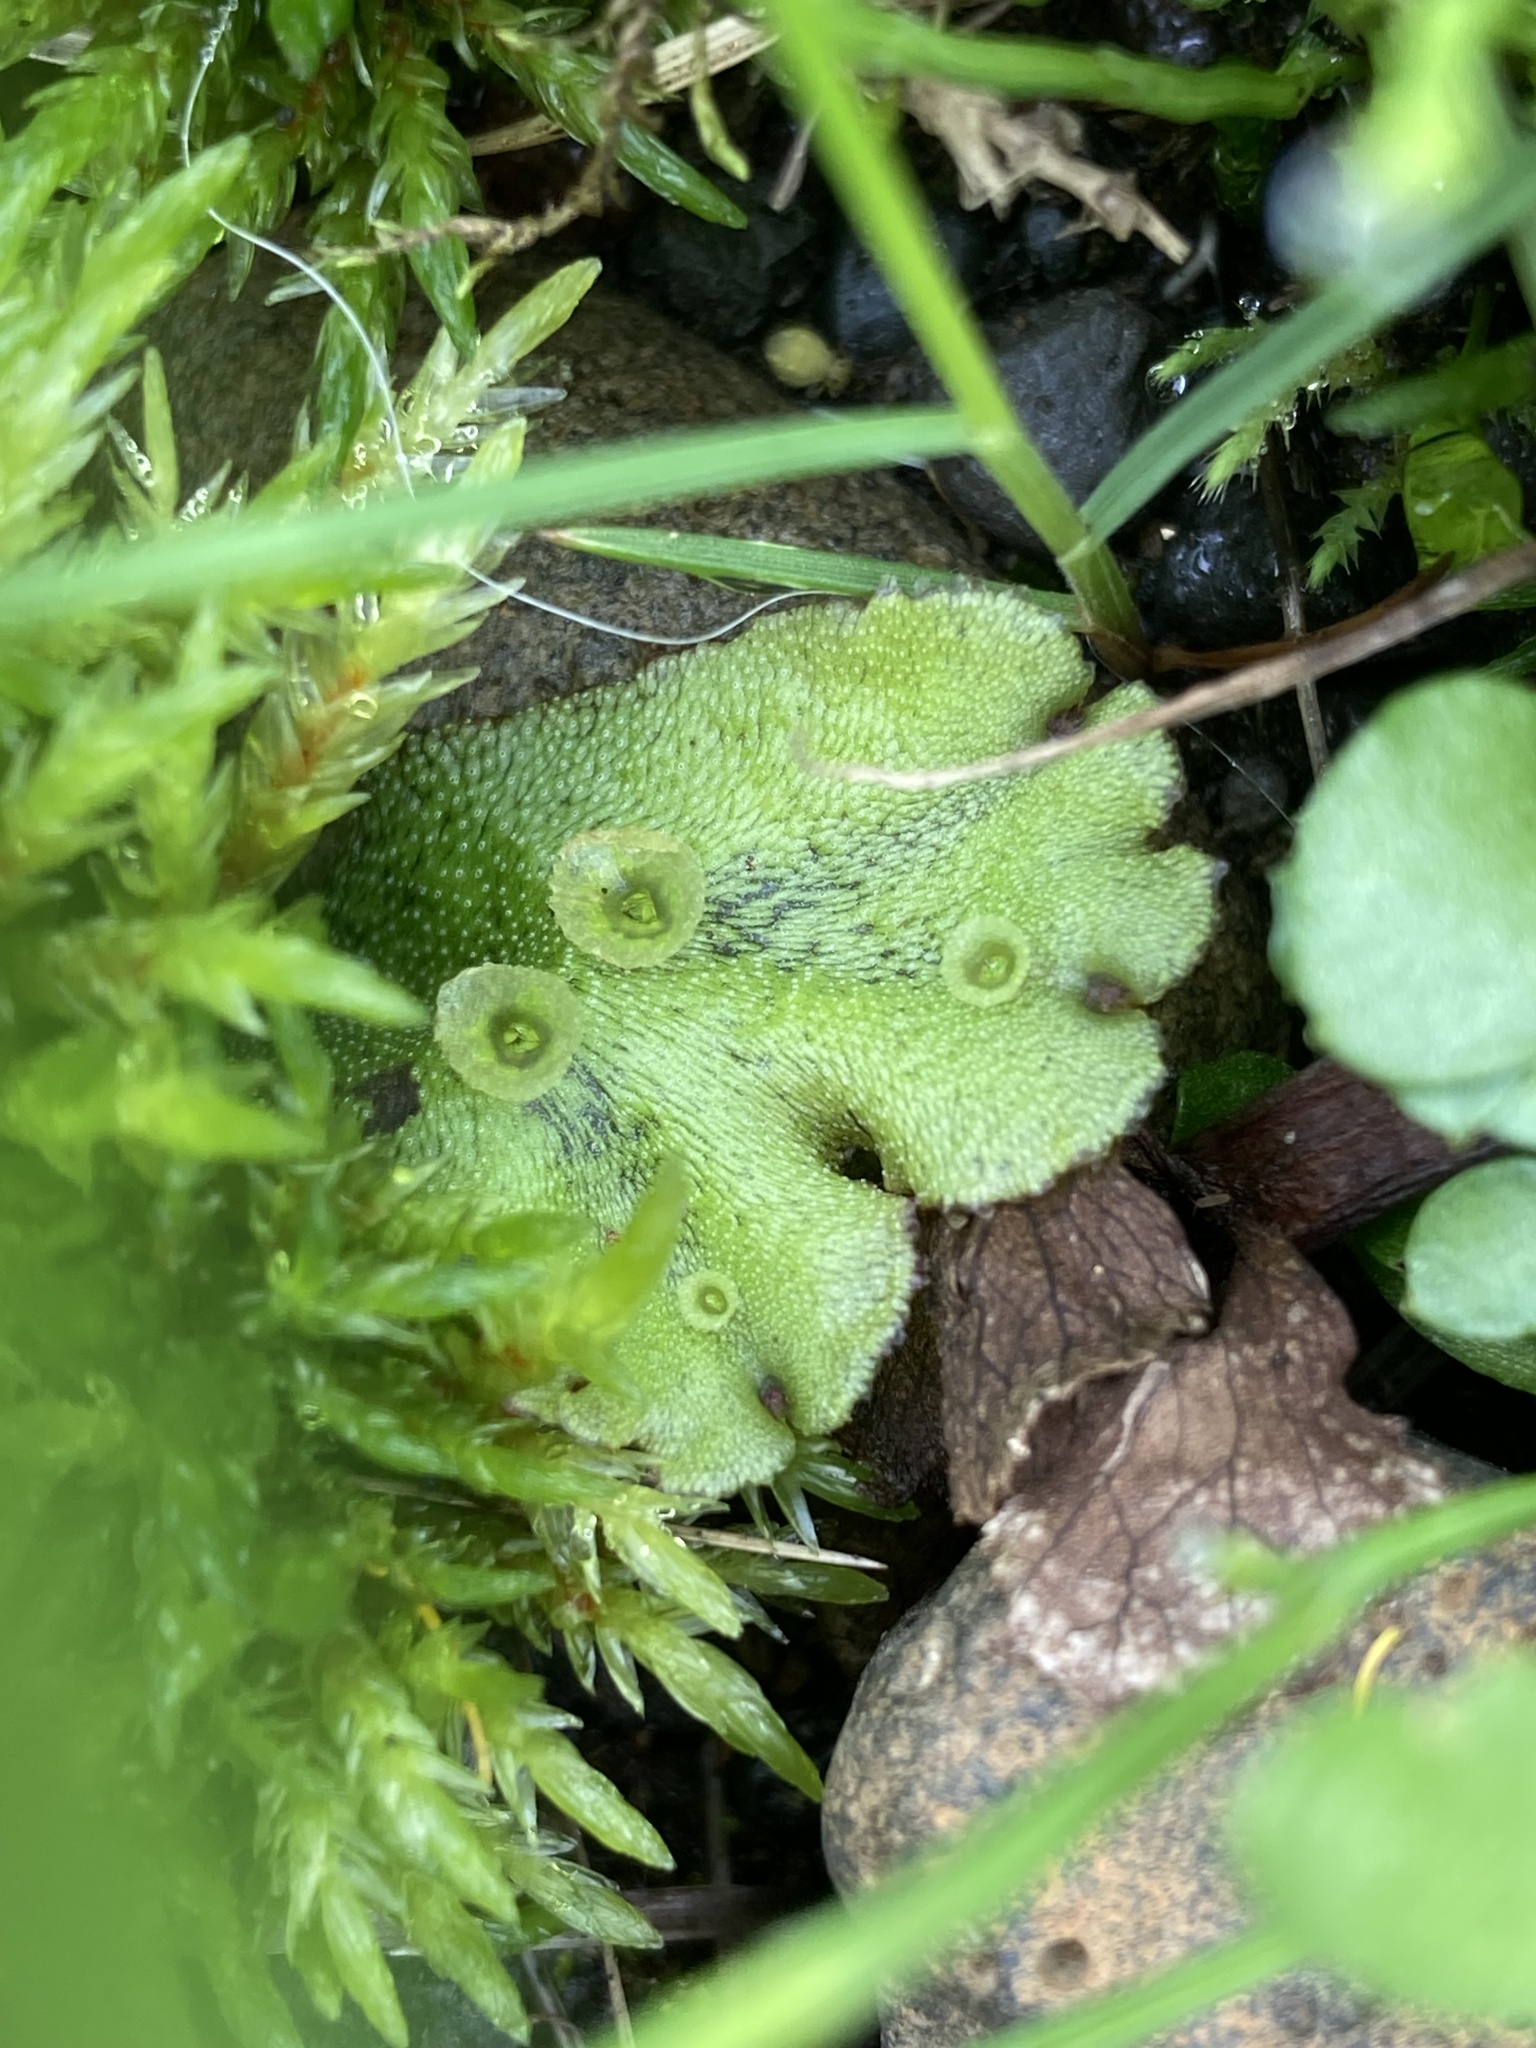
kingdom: Plantae
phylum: Marchantiophyta
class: Marchantiopsida
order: Marchantiales
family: Marchantiaceae
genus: Marchantia
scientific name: Marchantia polymorpha
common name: Common liverwort
